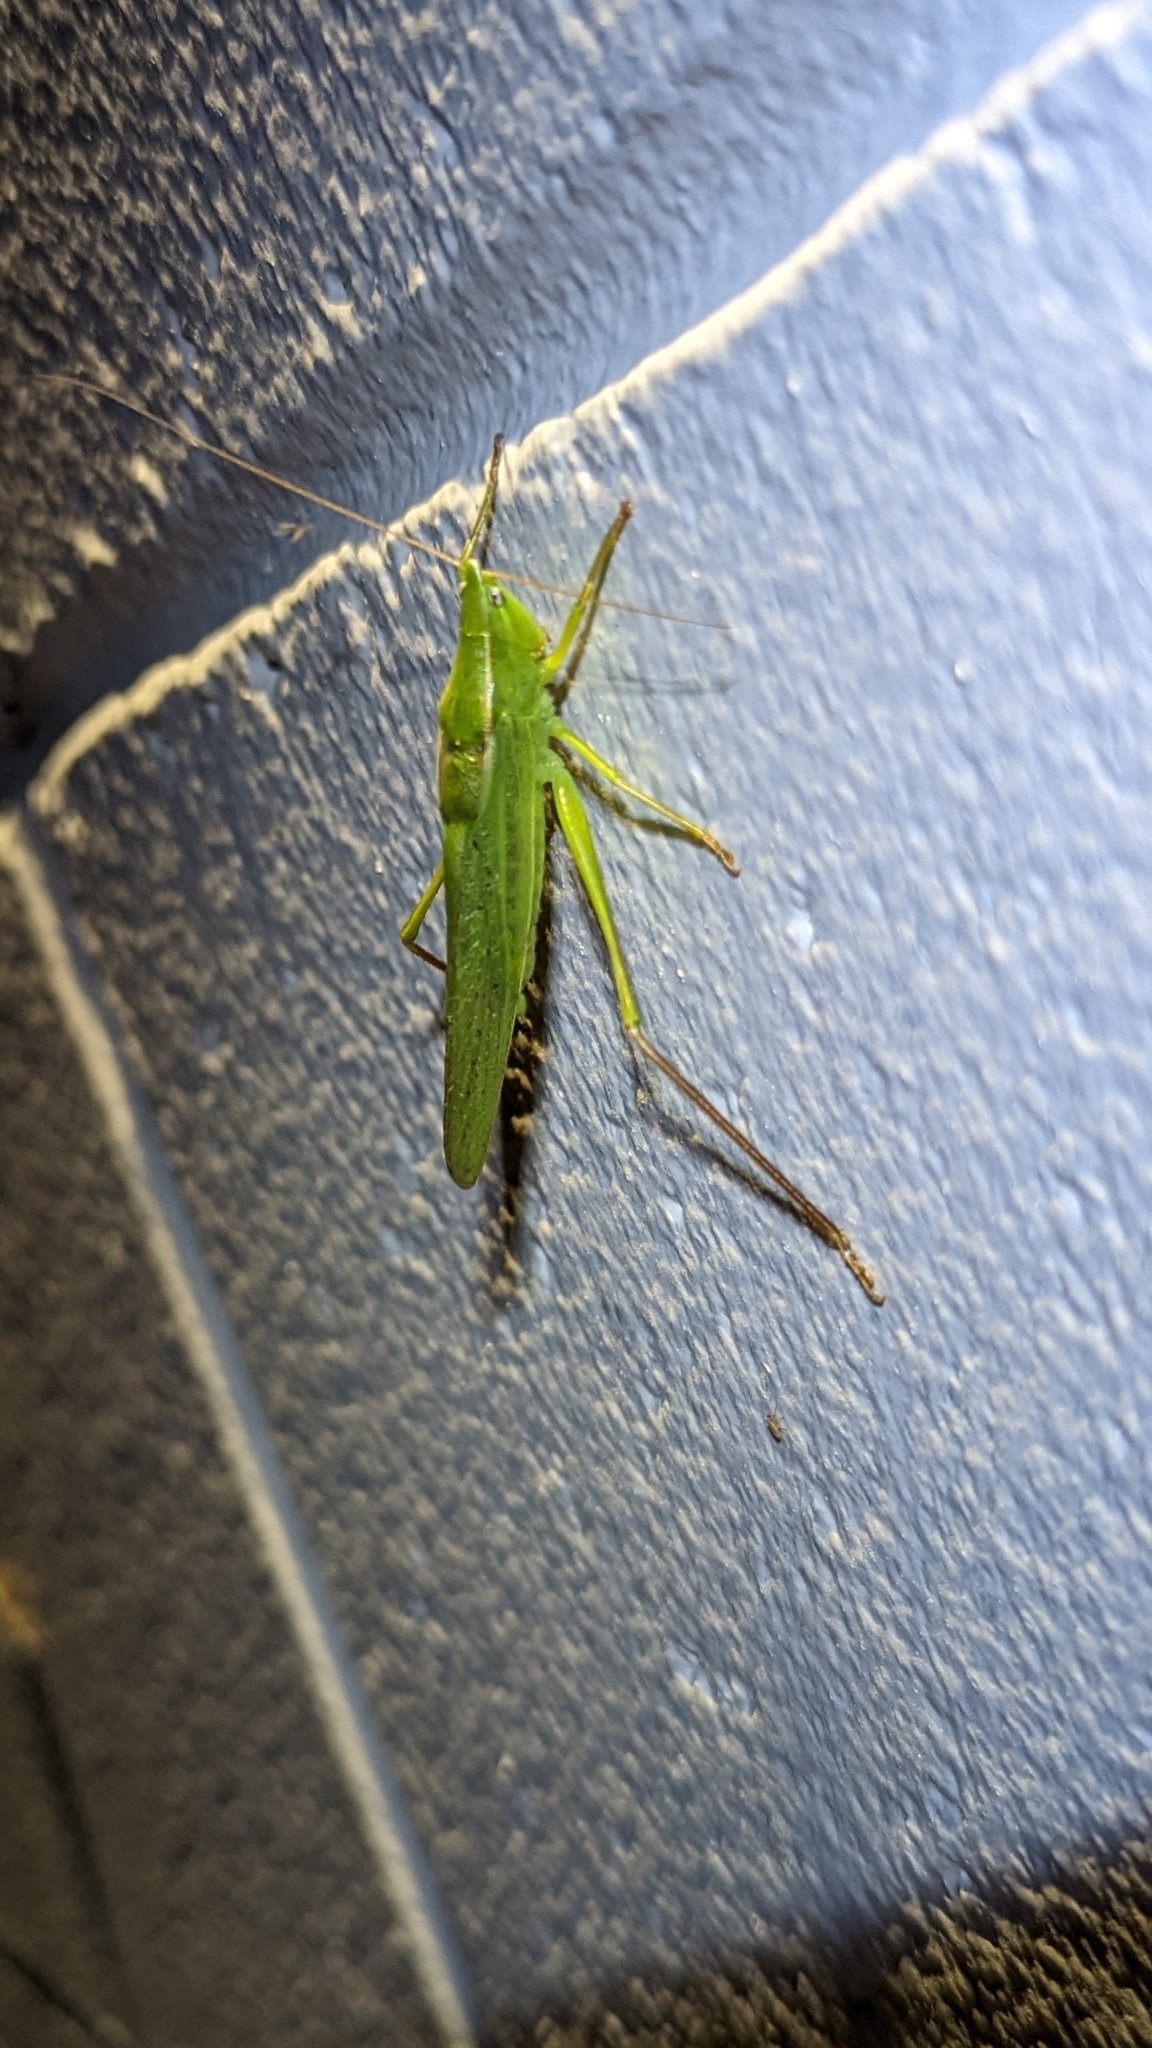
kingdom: Animalia
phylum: Arthropoda
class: Insecta
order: Orthoptera
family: Tettigoniidae
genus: Neoconocephalus
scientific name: Neoconocephalus retusus
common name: Round-tipped conehead
